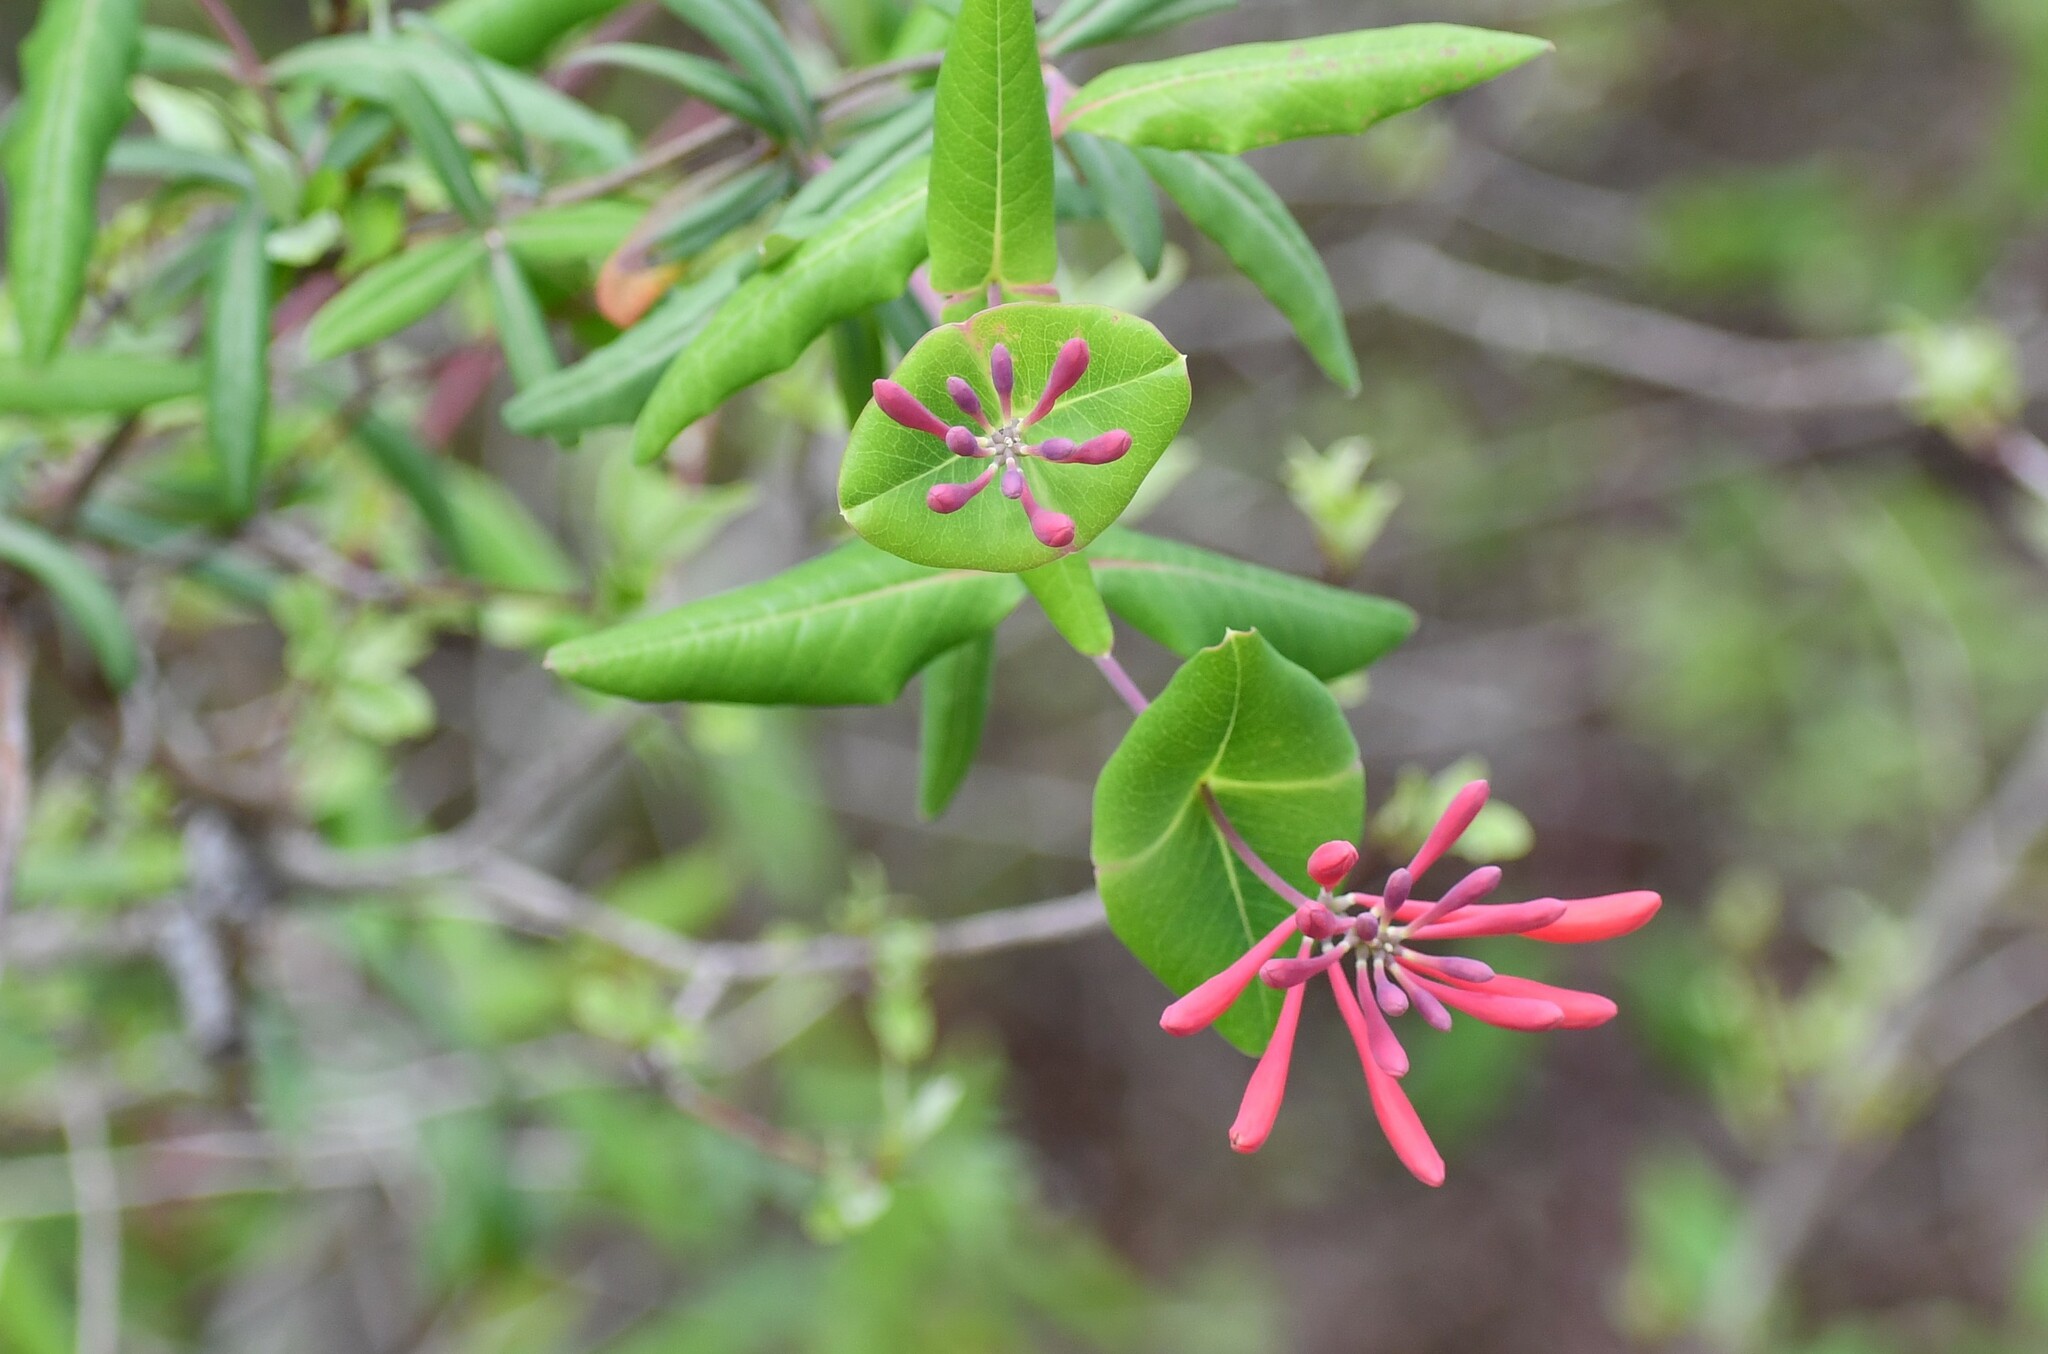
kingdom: Plantae
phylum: Tracheophyta
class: Magnoliopsida
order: Dipsacales
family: Caprifoliaceae
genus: Lonicera
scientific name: Lonicera sempervirens
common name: Coral honeysuckle
